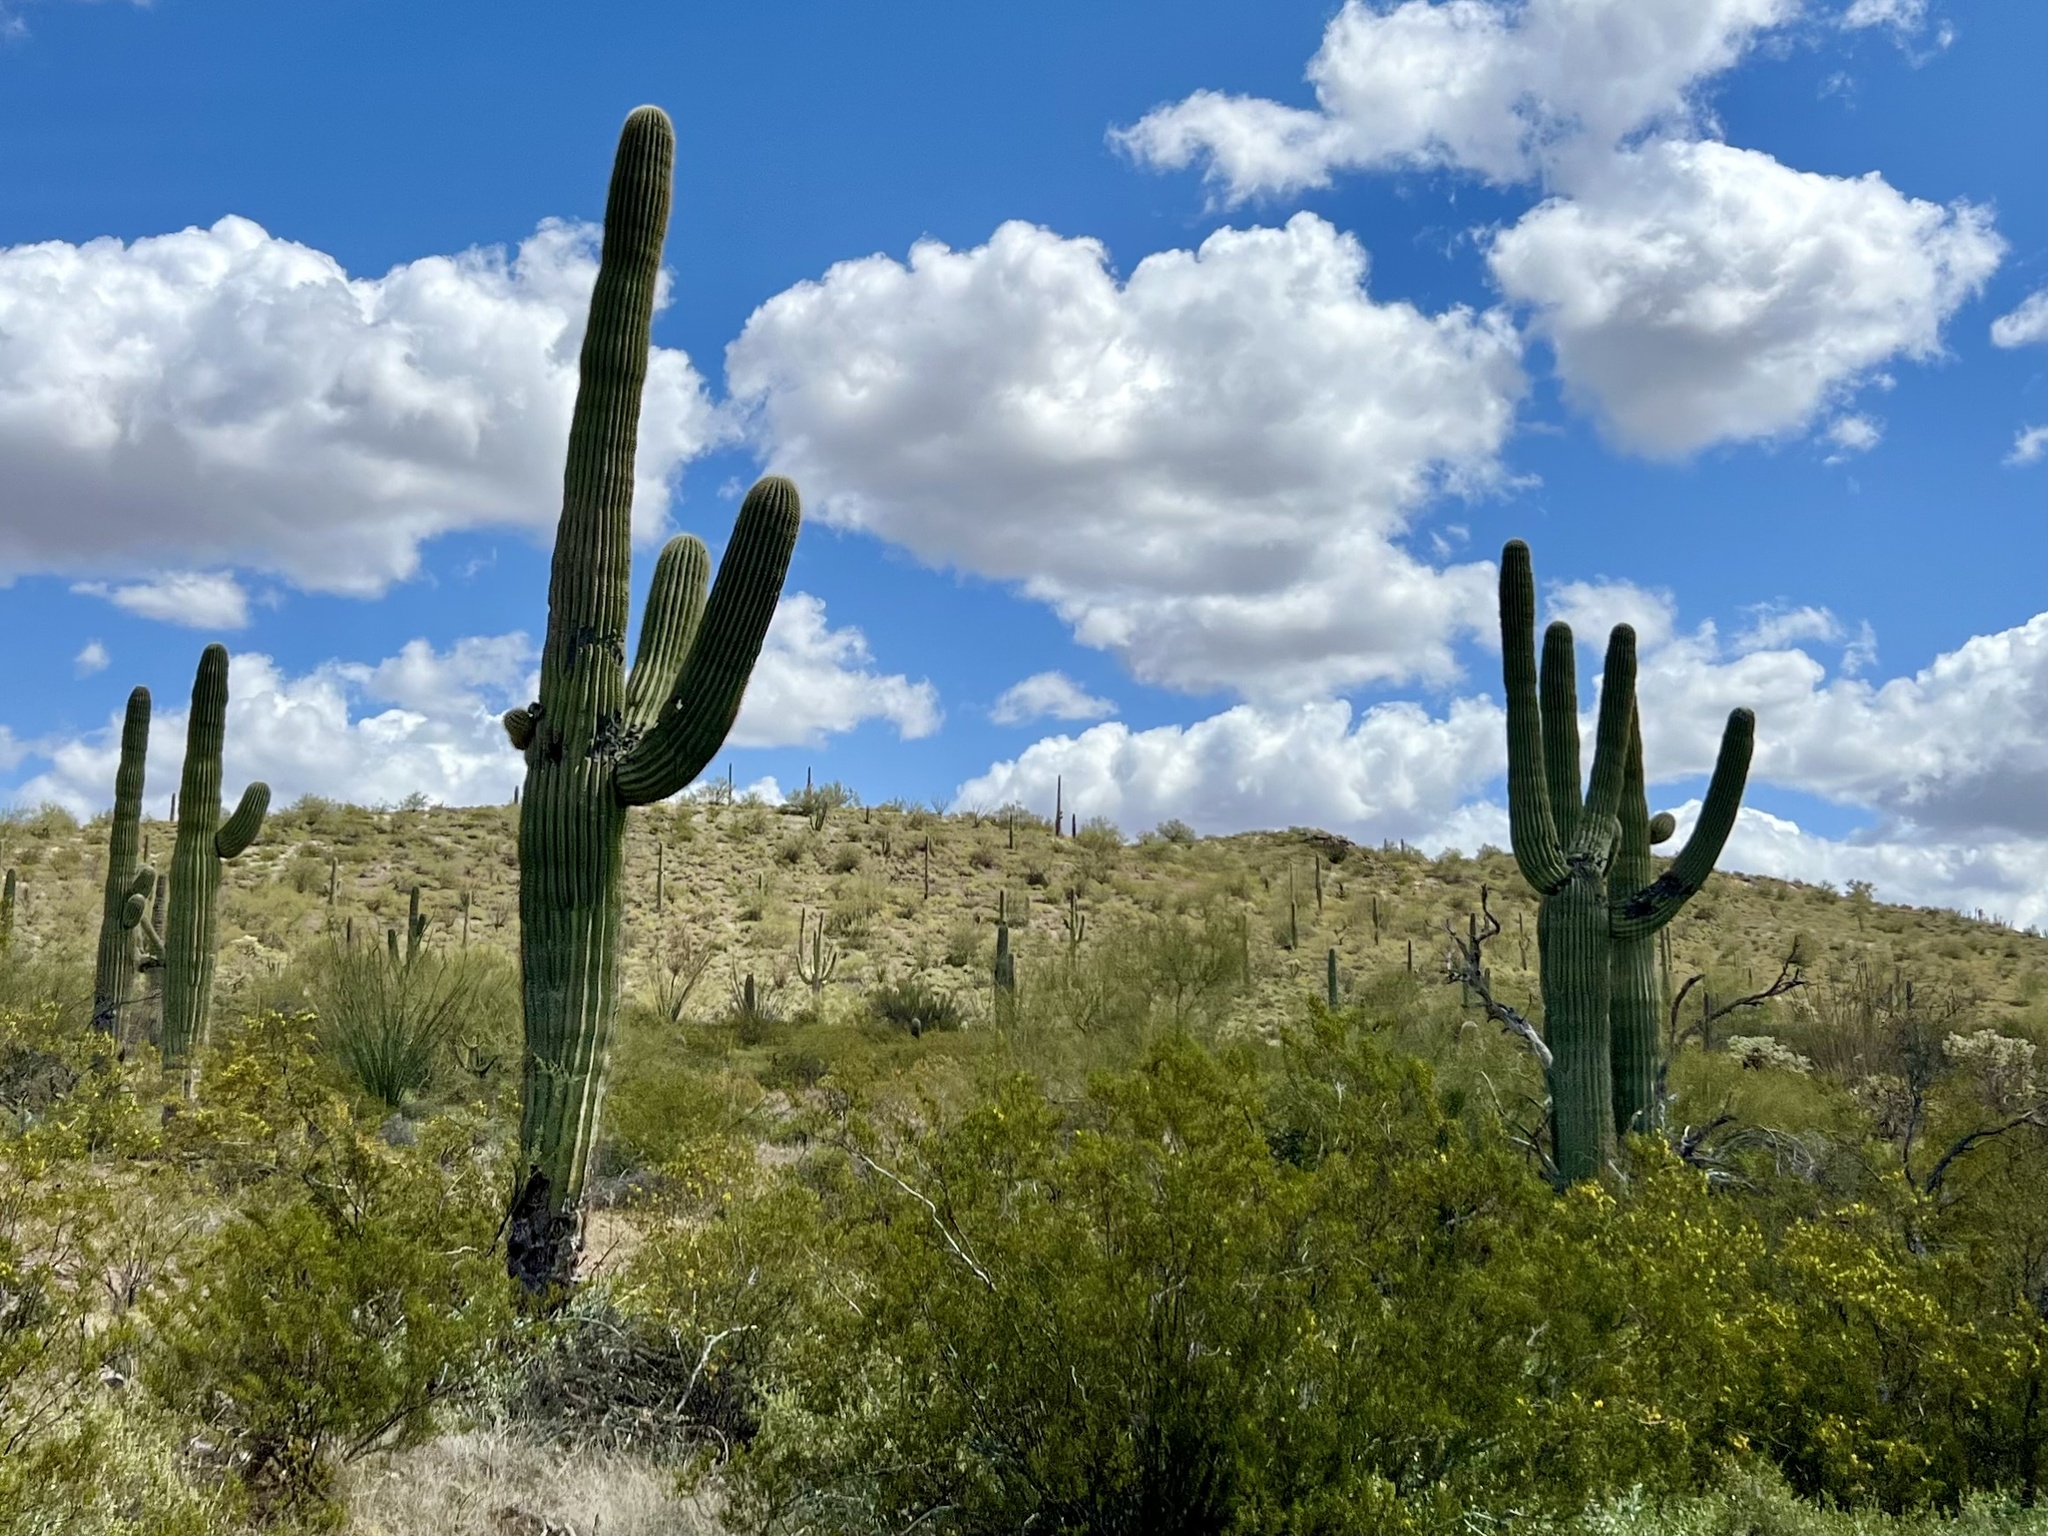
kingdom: Plantae
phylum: Tracheophyta
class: Magnoliopsida
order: Caryophyllales
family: Cactaceae
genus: Carnegiea
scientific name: Carnegiea gigantea
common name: Saguaro
